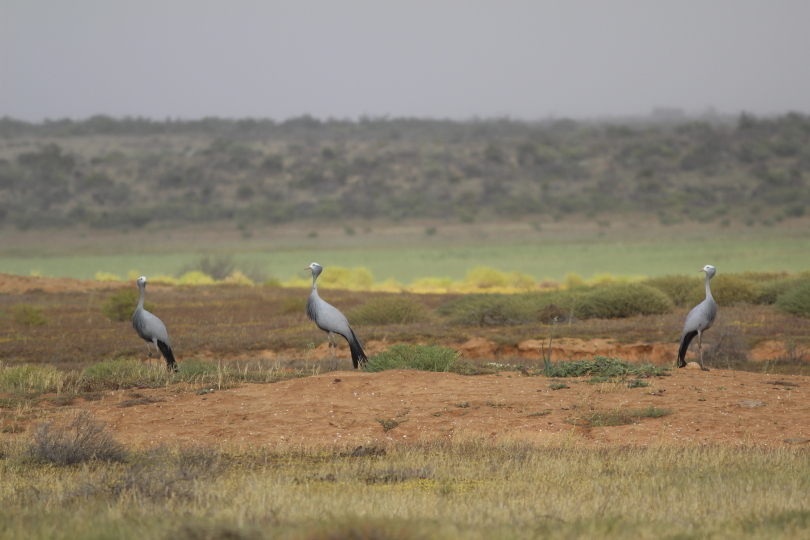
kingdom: Animalia
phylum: Chordata
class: Aves
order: Gruiformes
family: Gruidae
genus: Anthropoides
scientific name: Anthropoides paradiseus
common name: Blue crane
